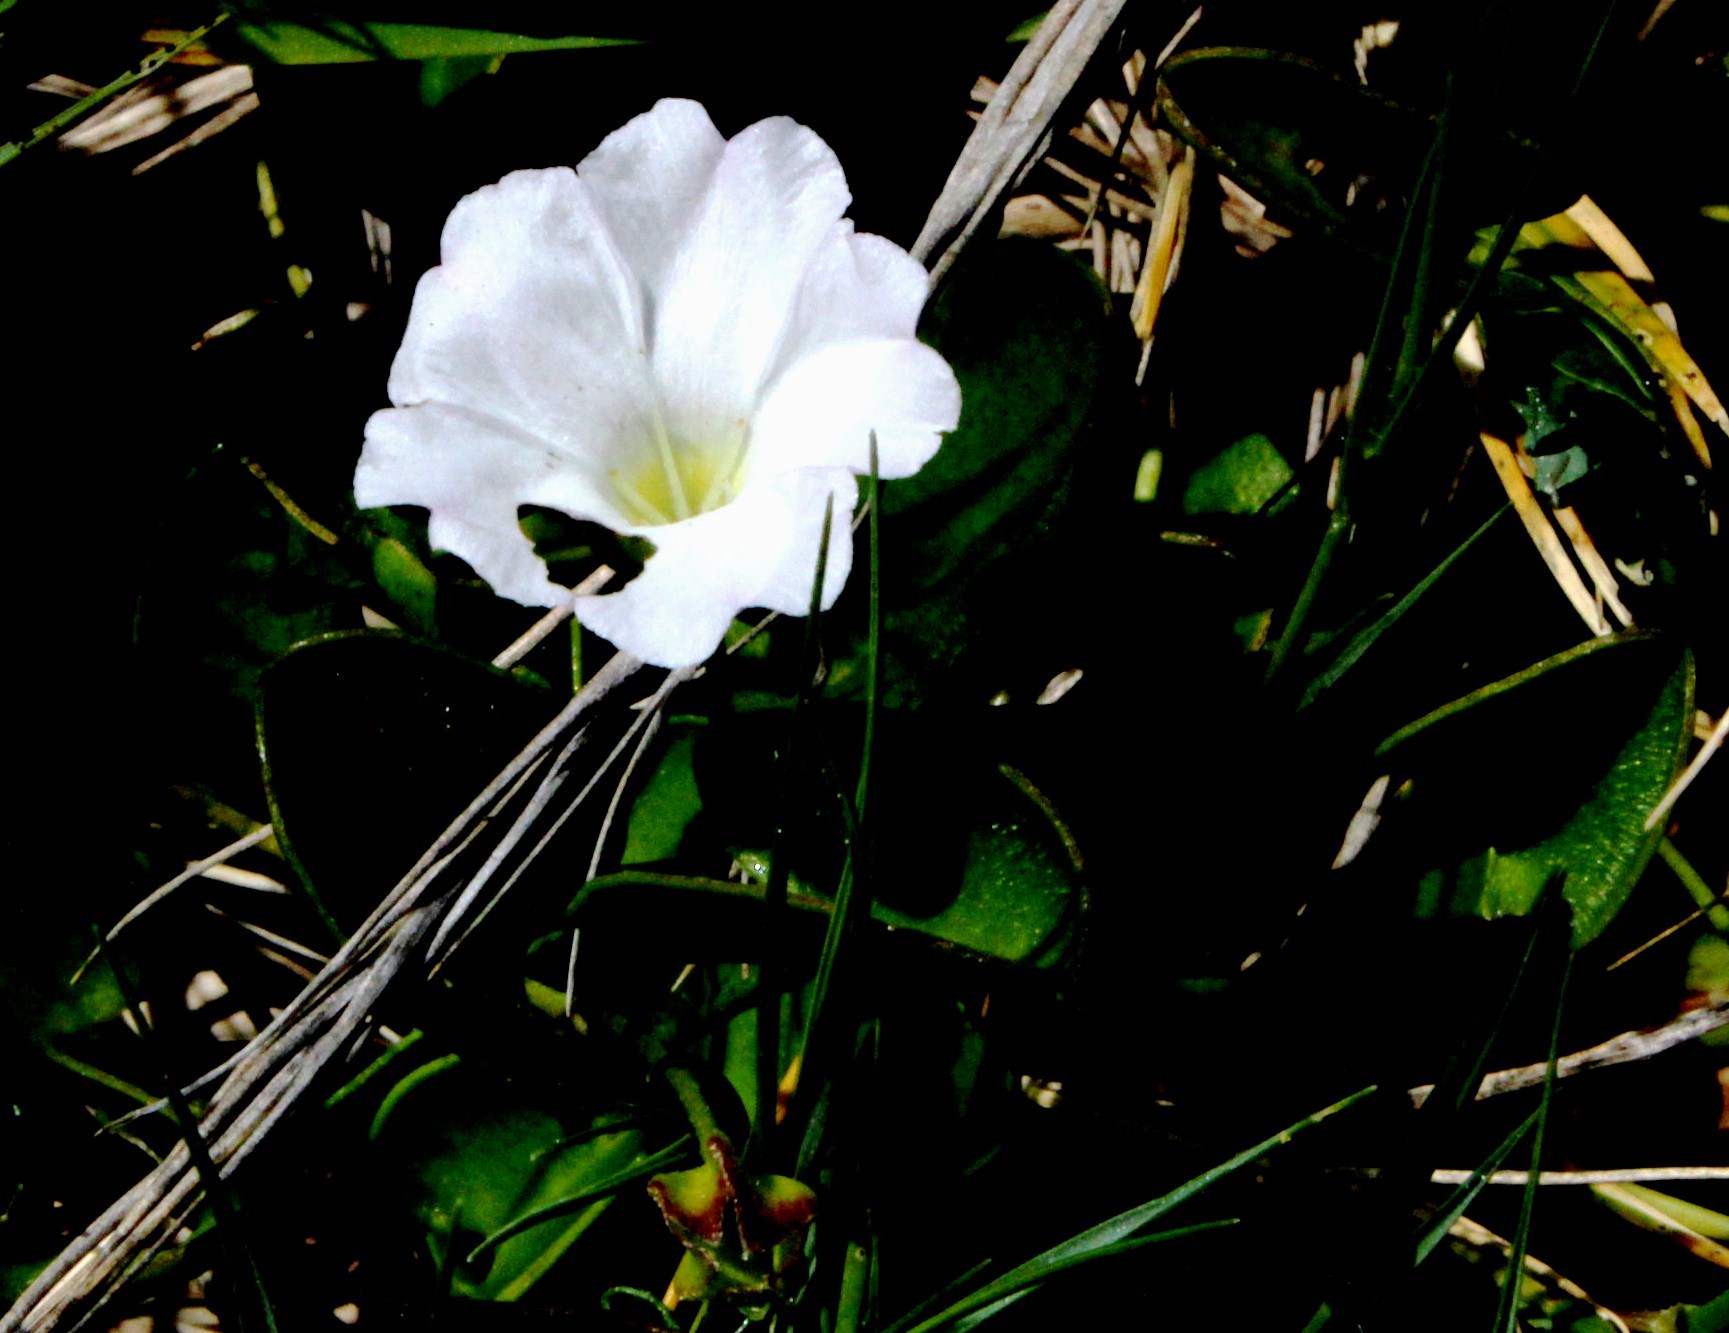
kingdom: Plantae
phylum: Tracheophyta
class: Magnoliopsida
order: Solanales
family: Convolvulaceae
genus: Falkia
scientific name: Falkia repens
